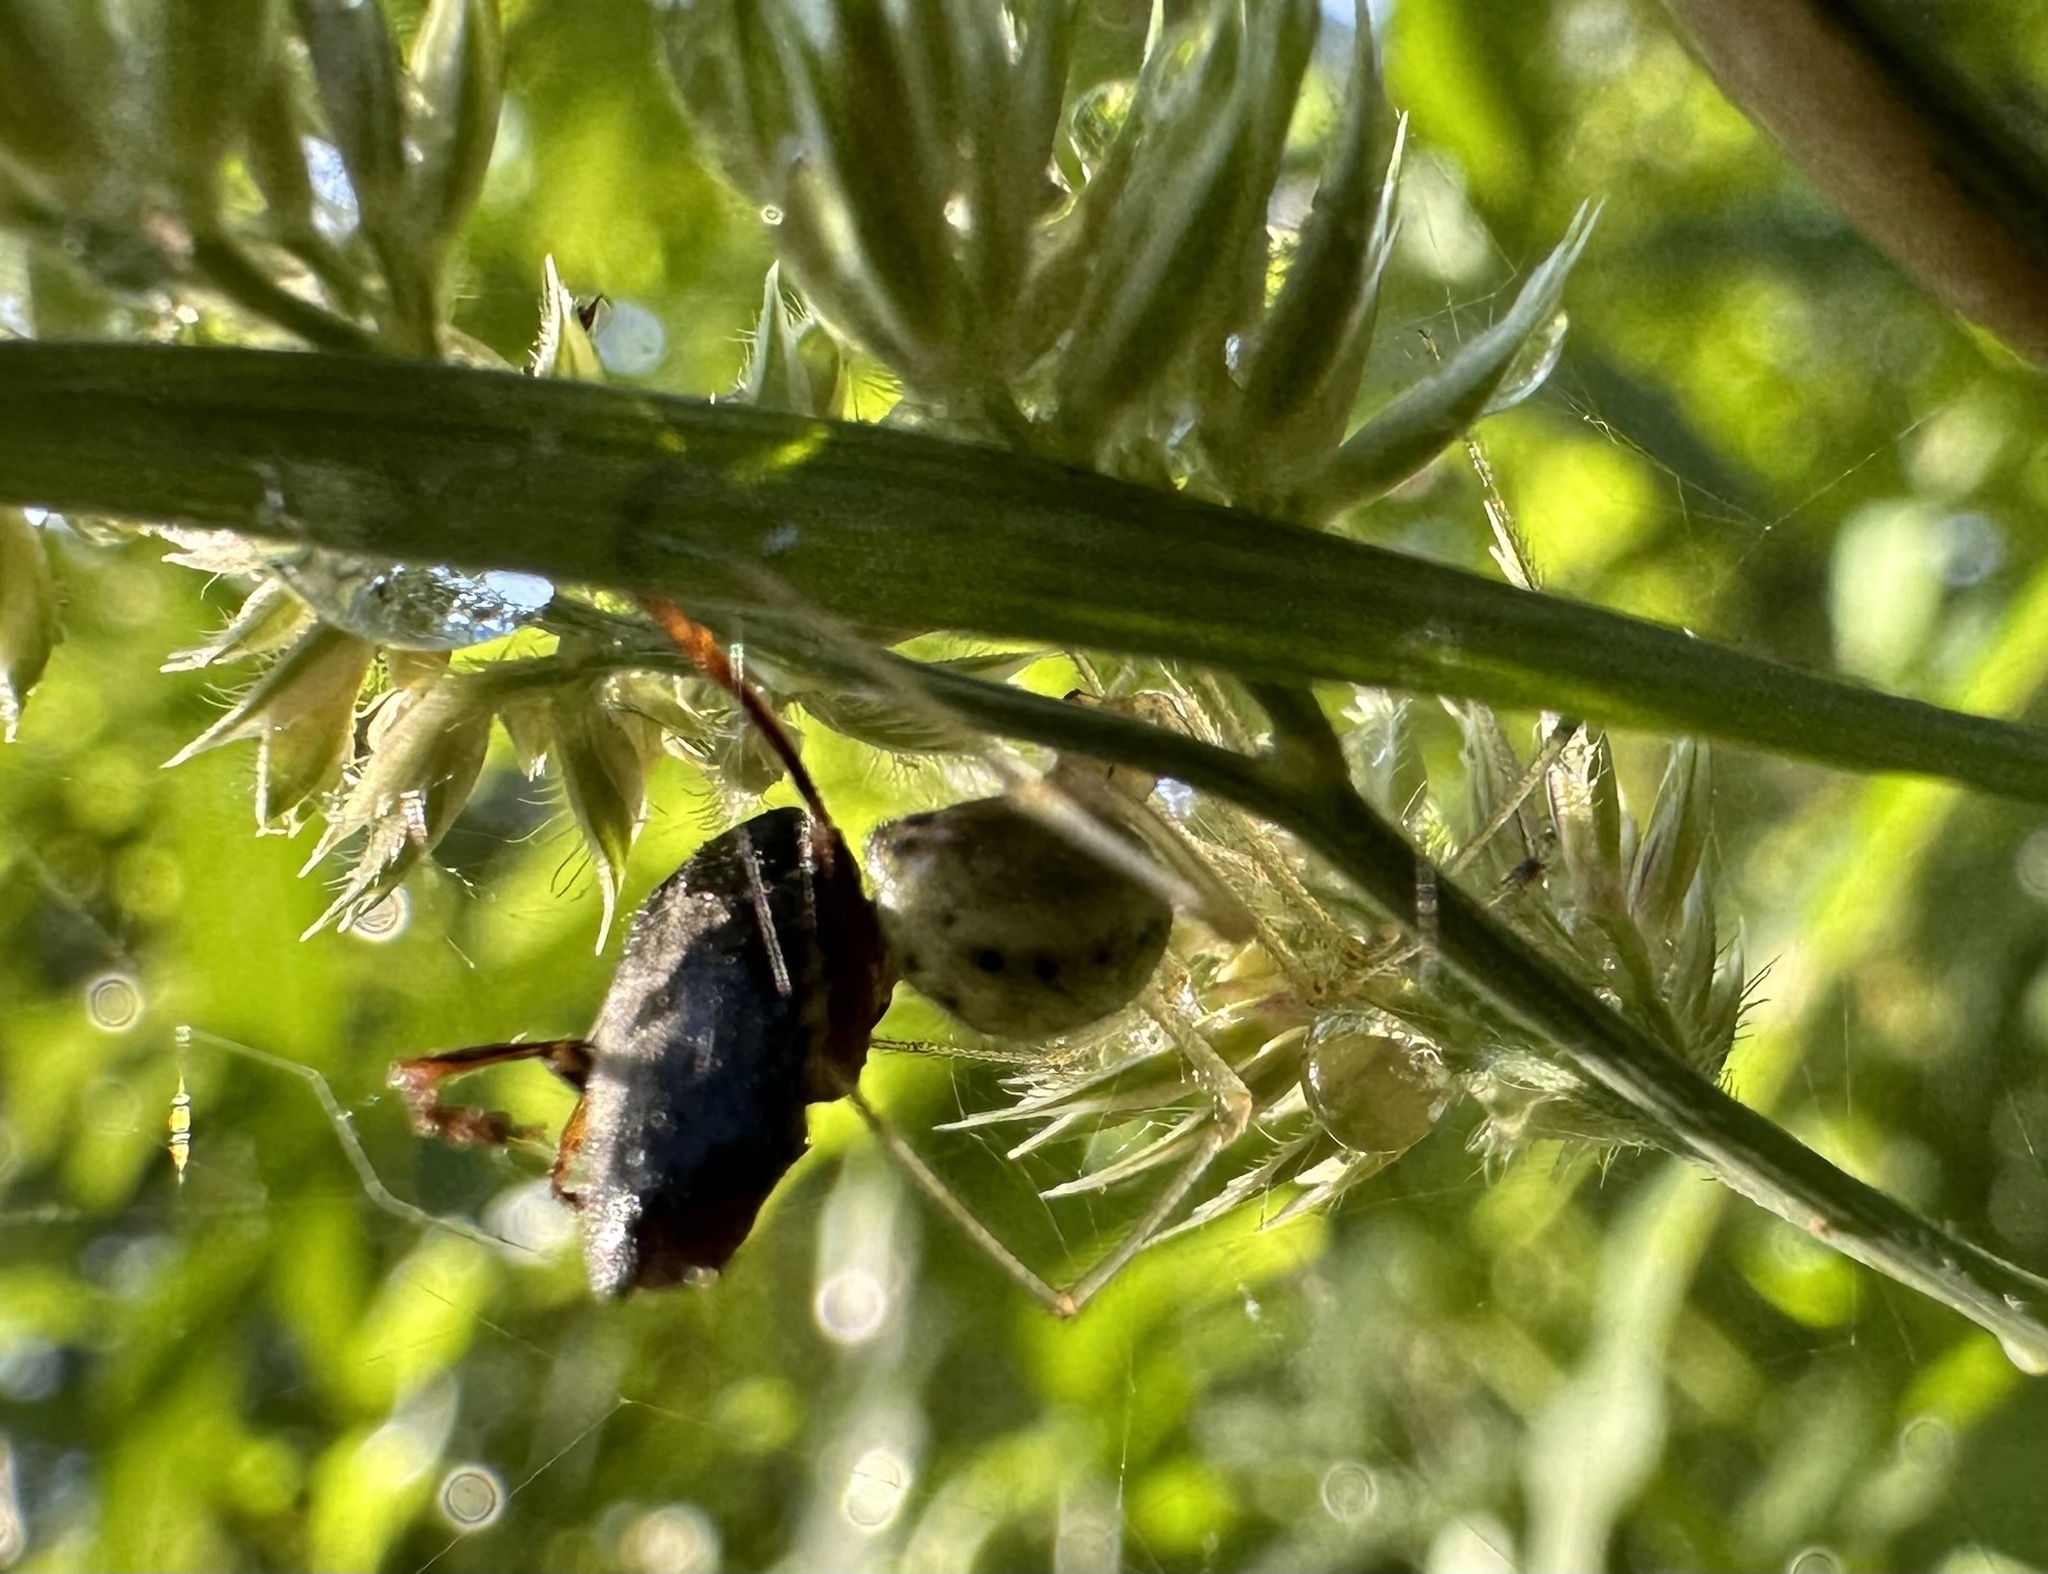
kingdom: Animalia
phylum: Arthropoda
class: Arachnida
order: Araneae
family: Theridiidae
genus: Enoplognatha
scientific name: Enoplognatha
